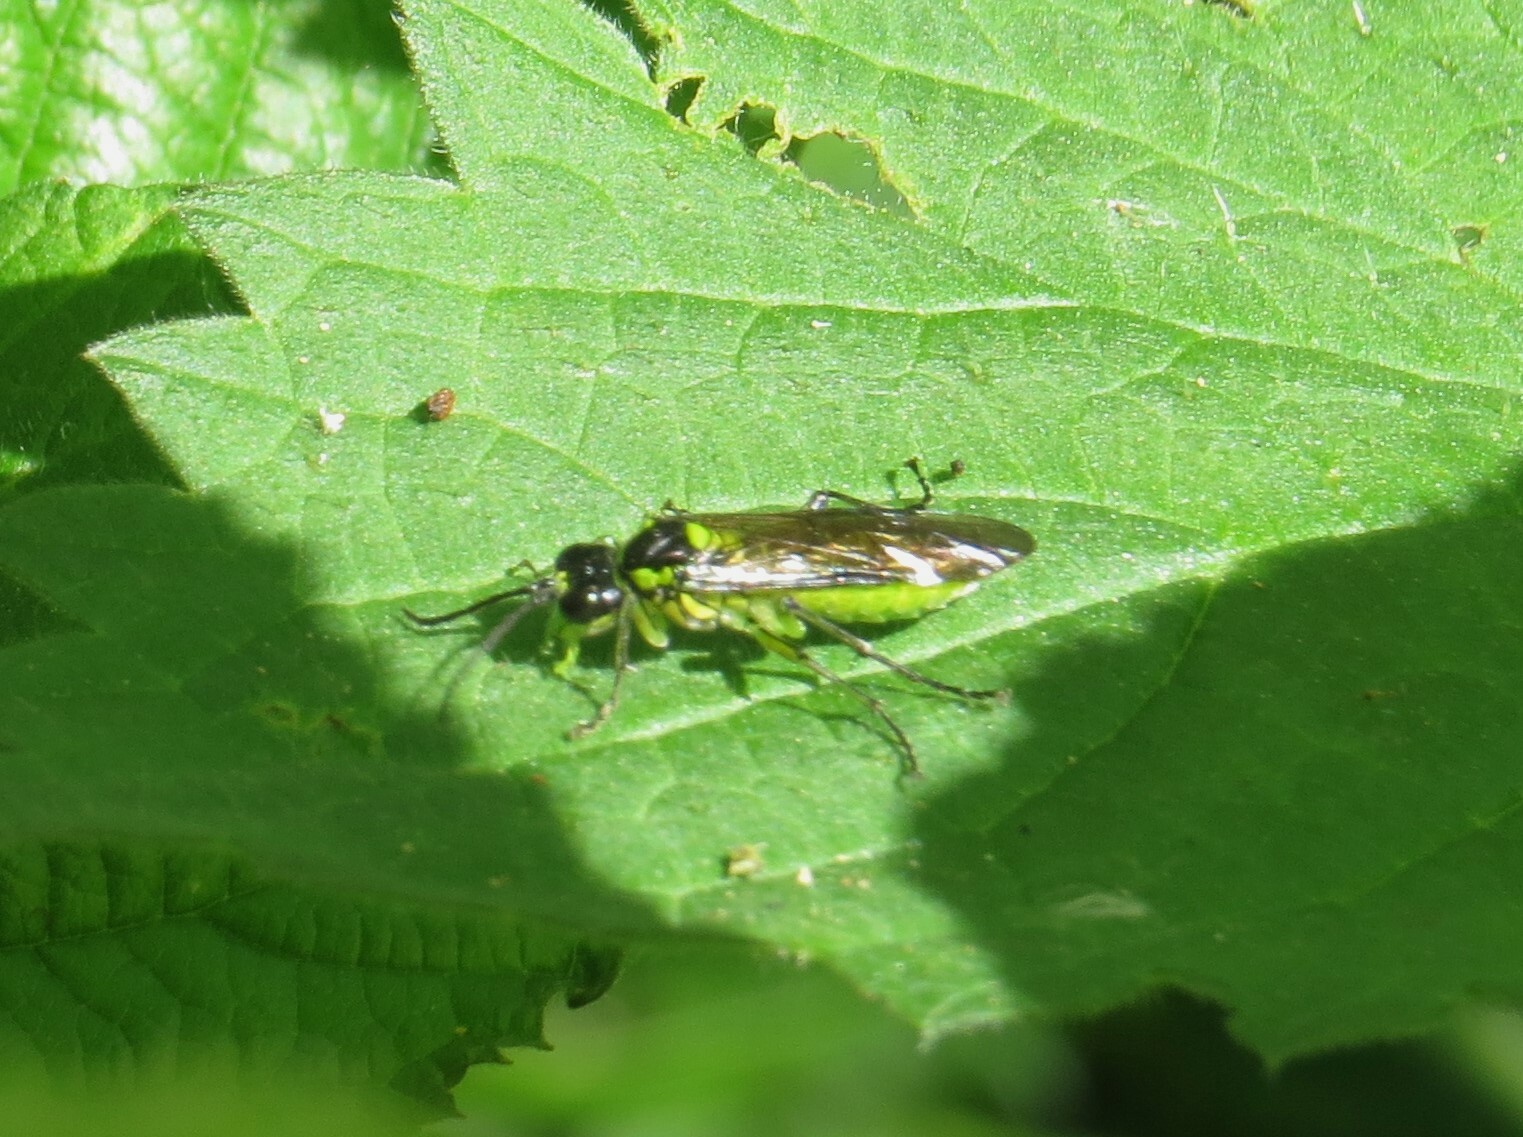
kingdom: Animalia
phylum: Arthropoda
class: Insecta
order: Hymenoptera
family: Tenthredinidae
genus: Tenthredo
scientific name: Tenthredo mesomela
